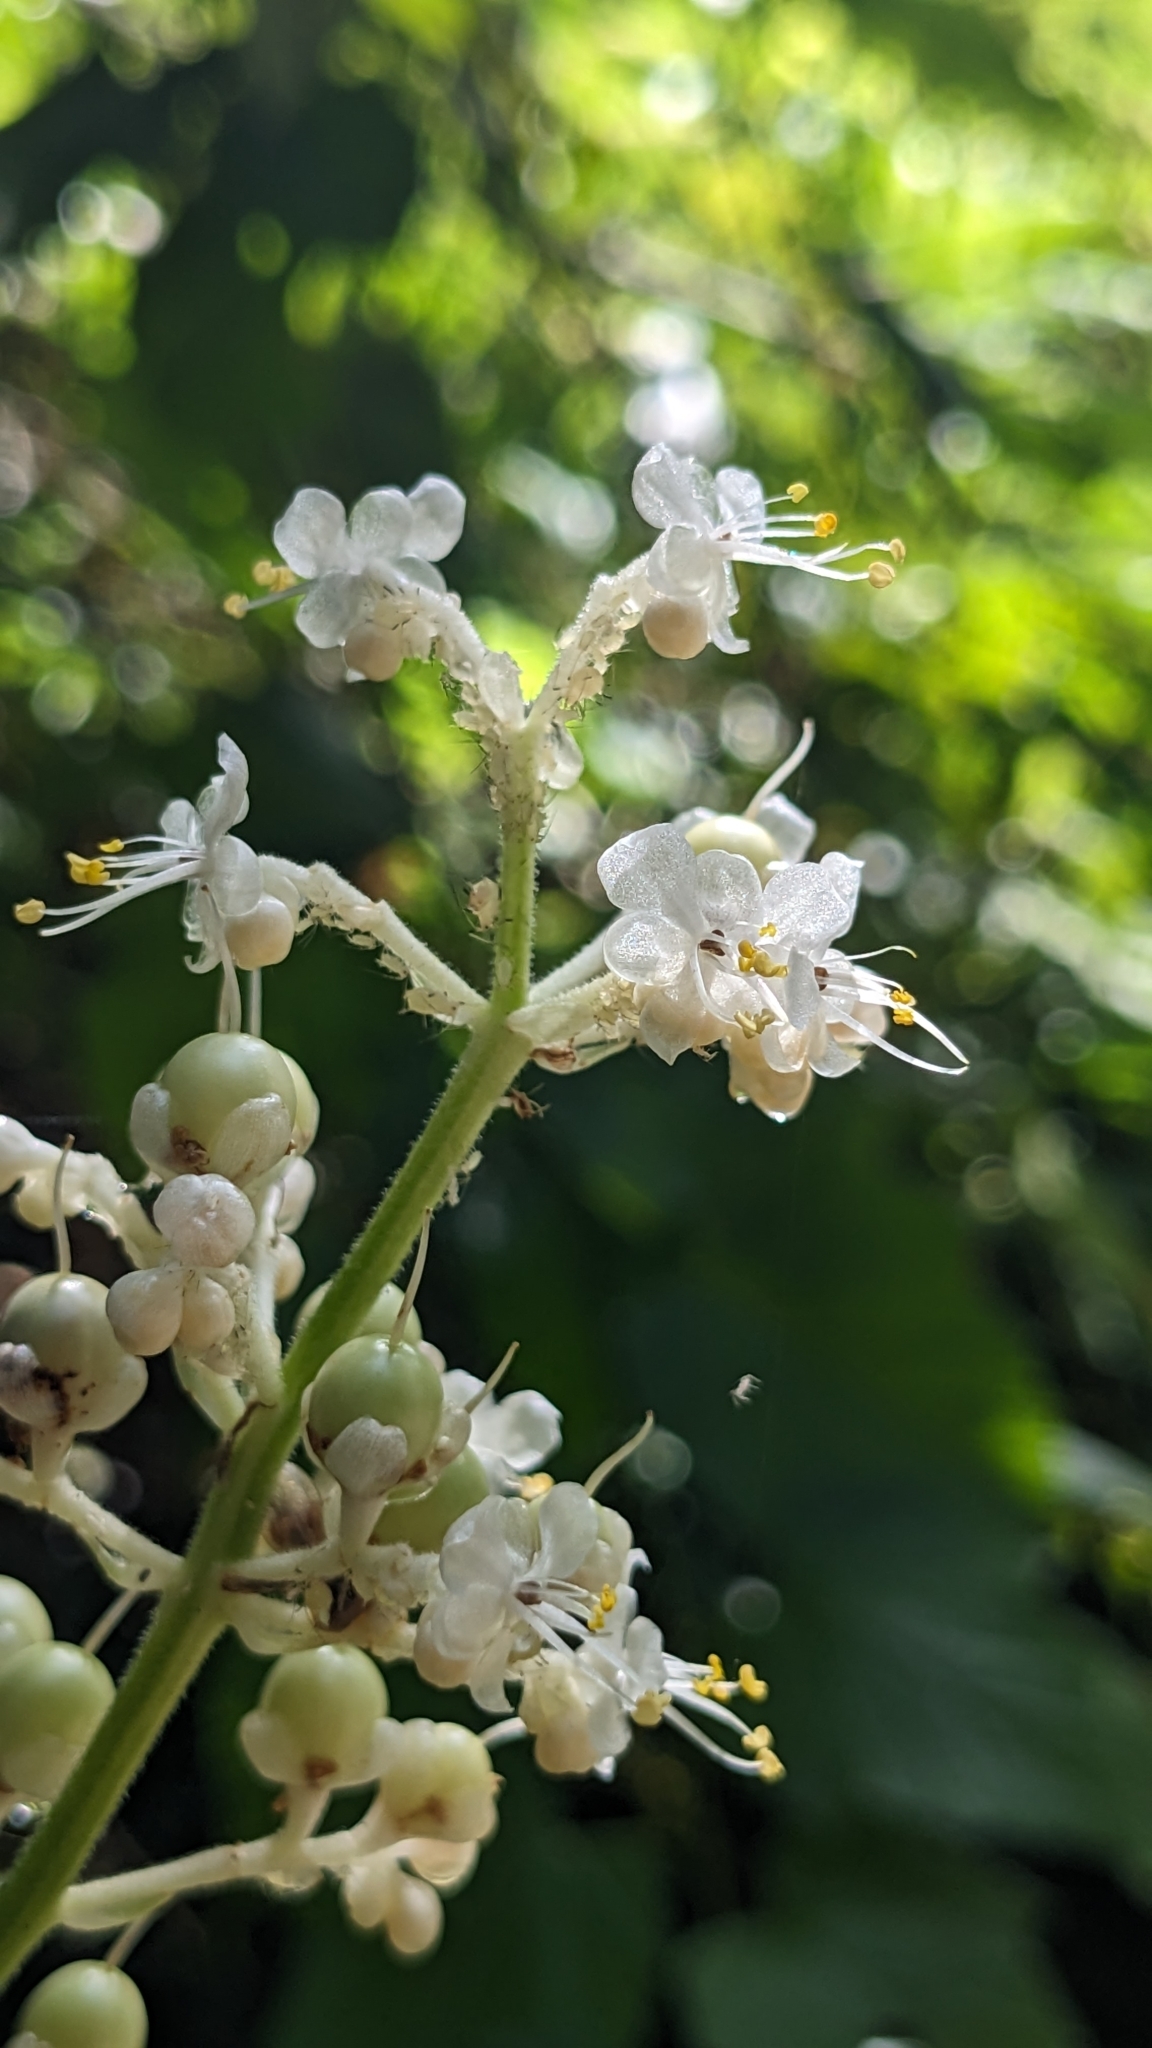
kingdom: Plantae
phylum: Tracheophyta
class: Liliopsida
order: Commelinales
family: Commelinaceae
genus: Pollia
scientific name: Pollia japonica
